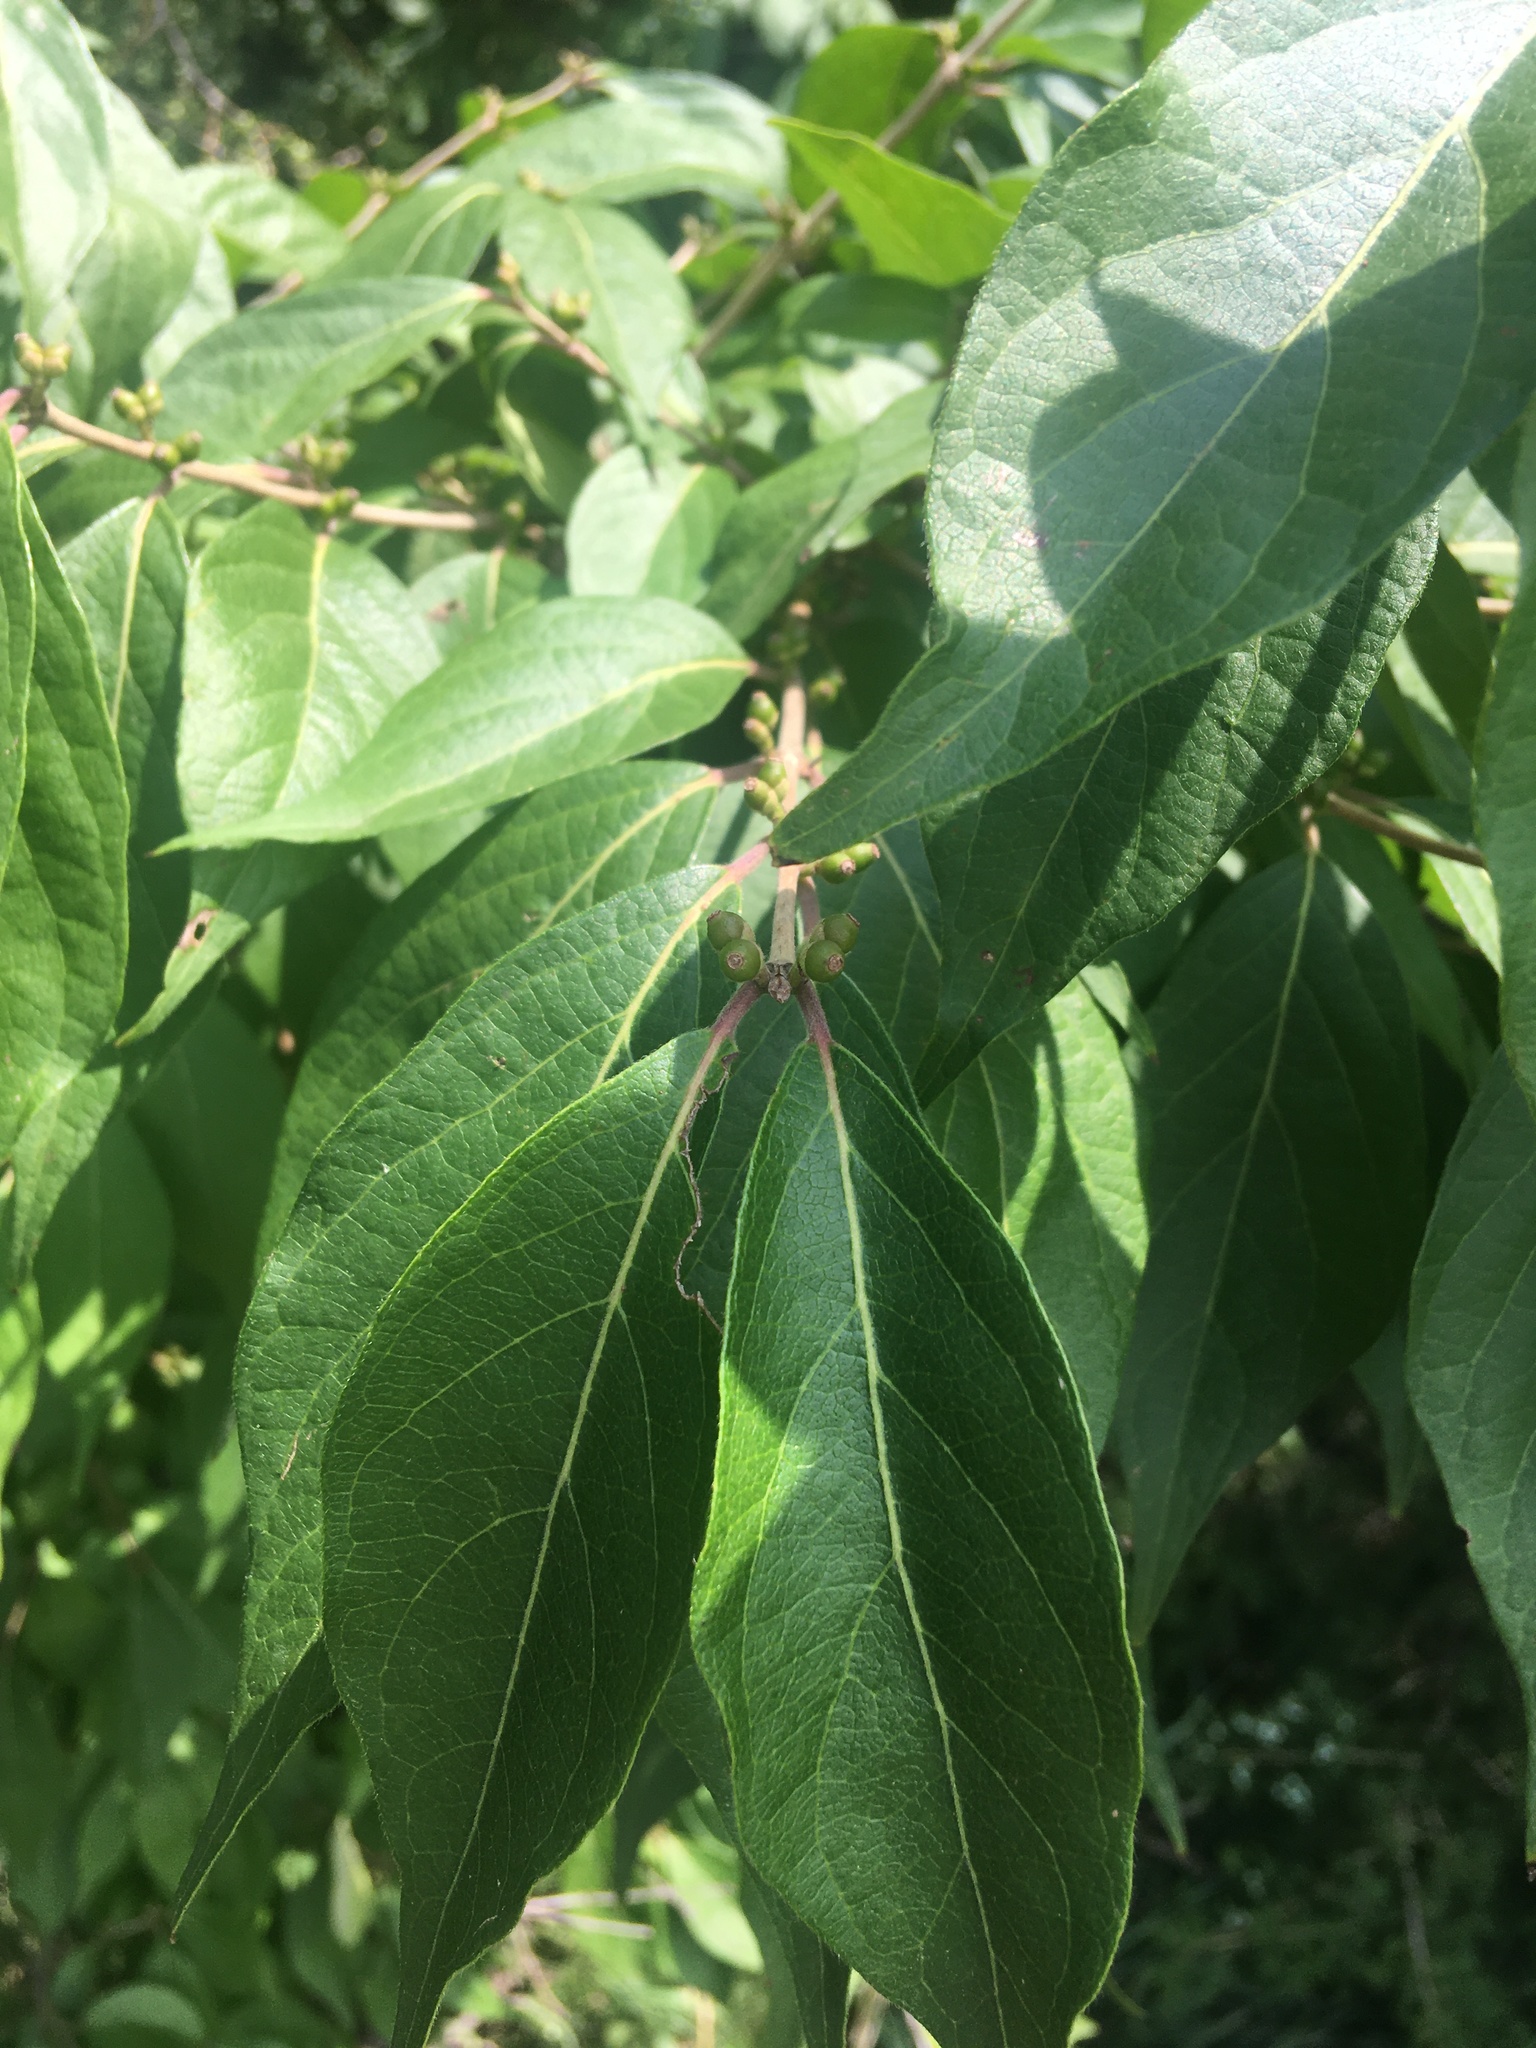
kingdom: Plantae
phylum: Tracheophyta
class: Magnoliopsida
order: Dipsacales
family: Caprifoliaceae
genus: Lonicera
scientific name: Lonicera maackii
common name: Amur honeysuckle
